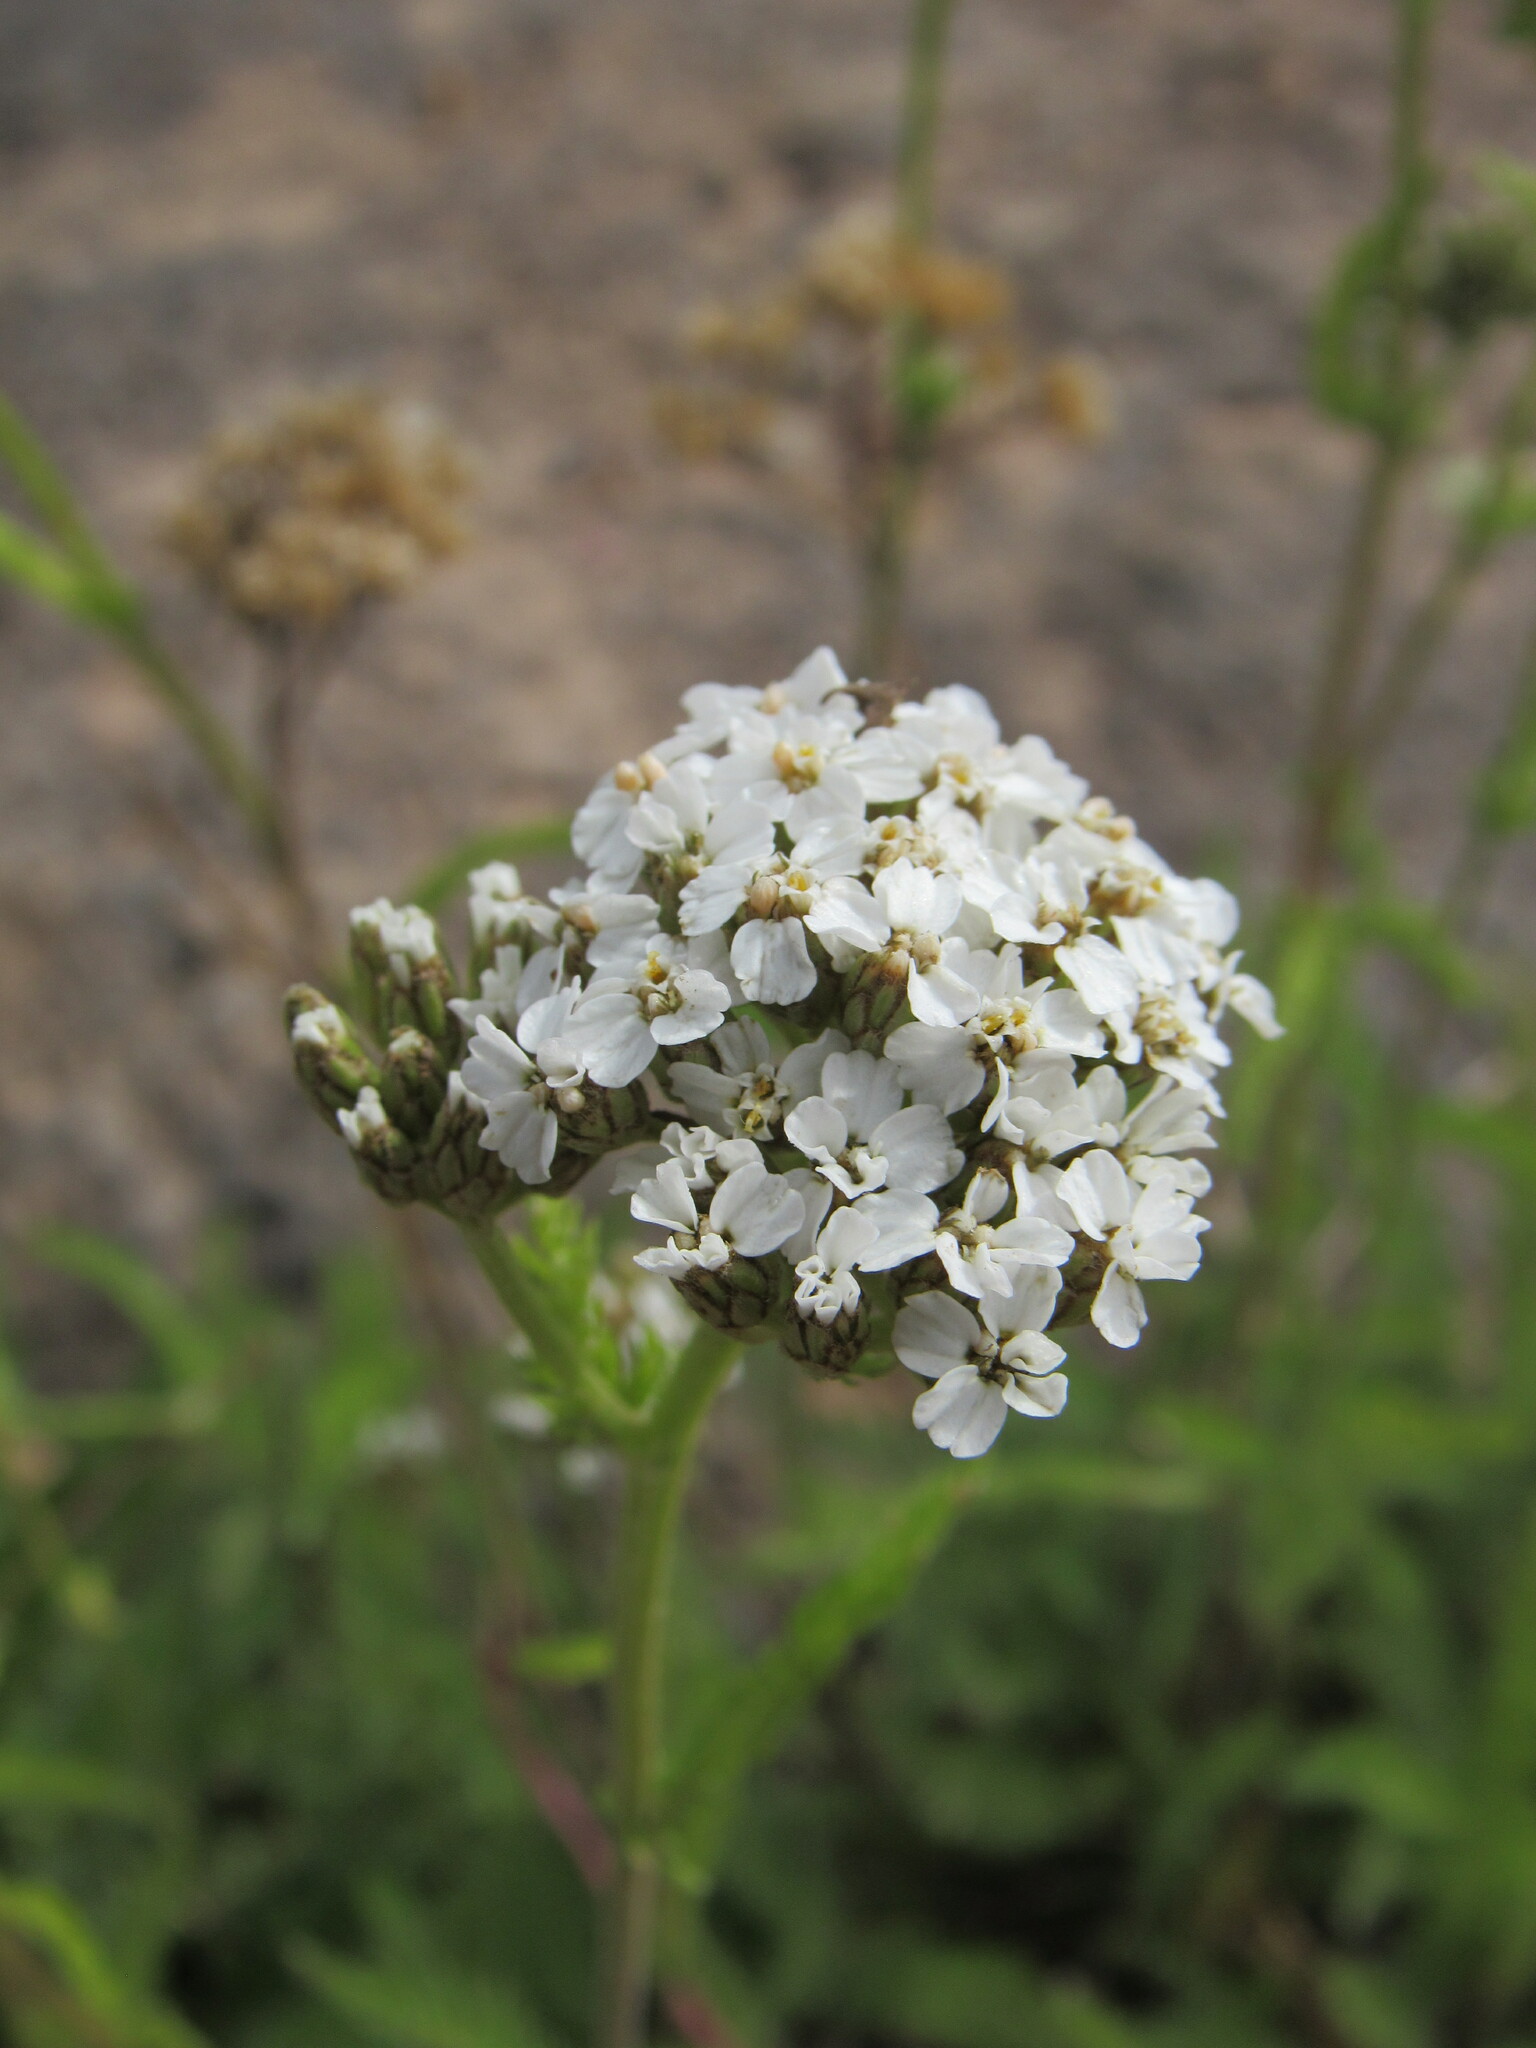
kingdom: Plantae
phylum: Tracheophyta
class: Magnoliopsida
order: Asterales
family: Asteraceae
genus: Achillea
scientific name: Achillea millefolium
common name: Yarrow
